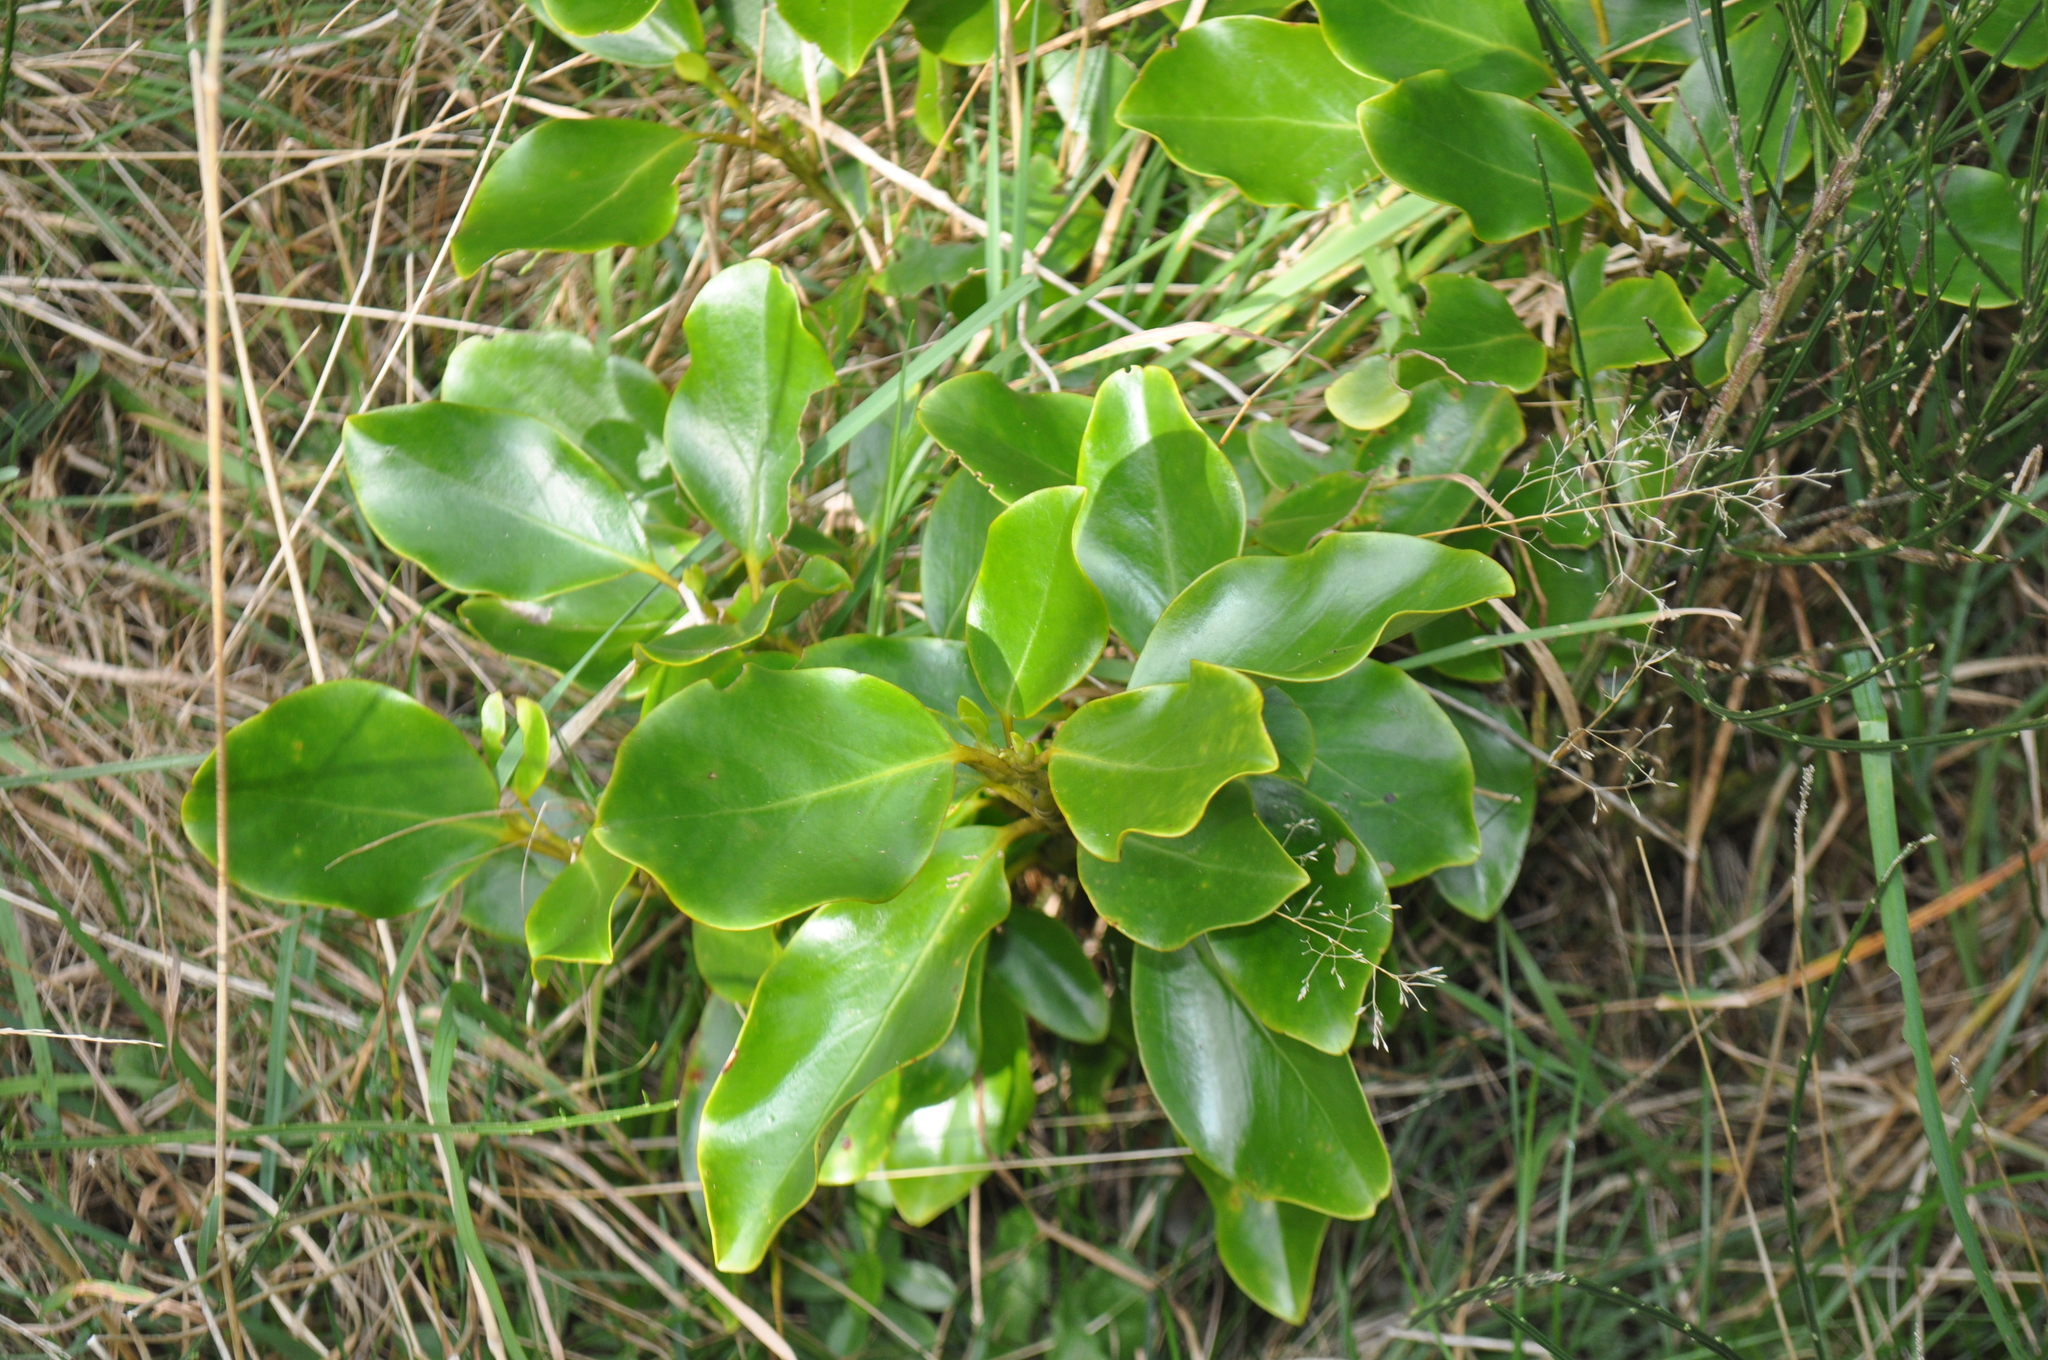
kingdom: Plantae
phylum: Tracheophyta
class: Magnoliopsida
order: Apiales
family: Griseliniaceae
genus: Griselinia
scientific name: Griselinia littoralis
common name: New zealand broadleaf
